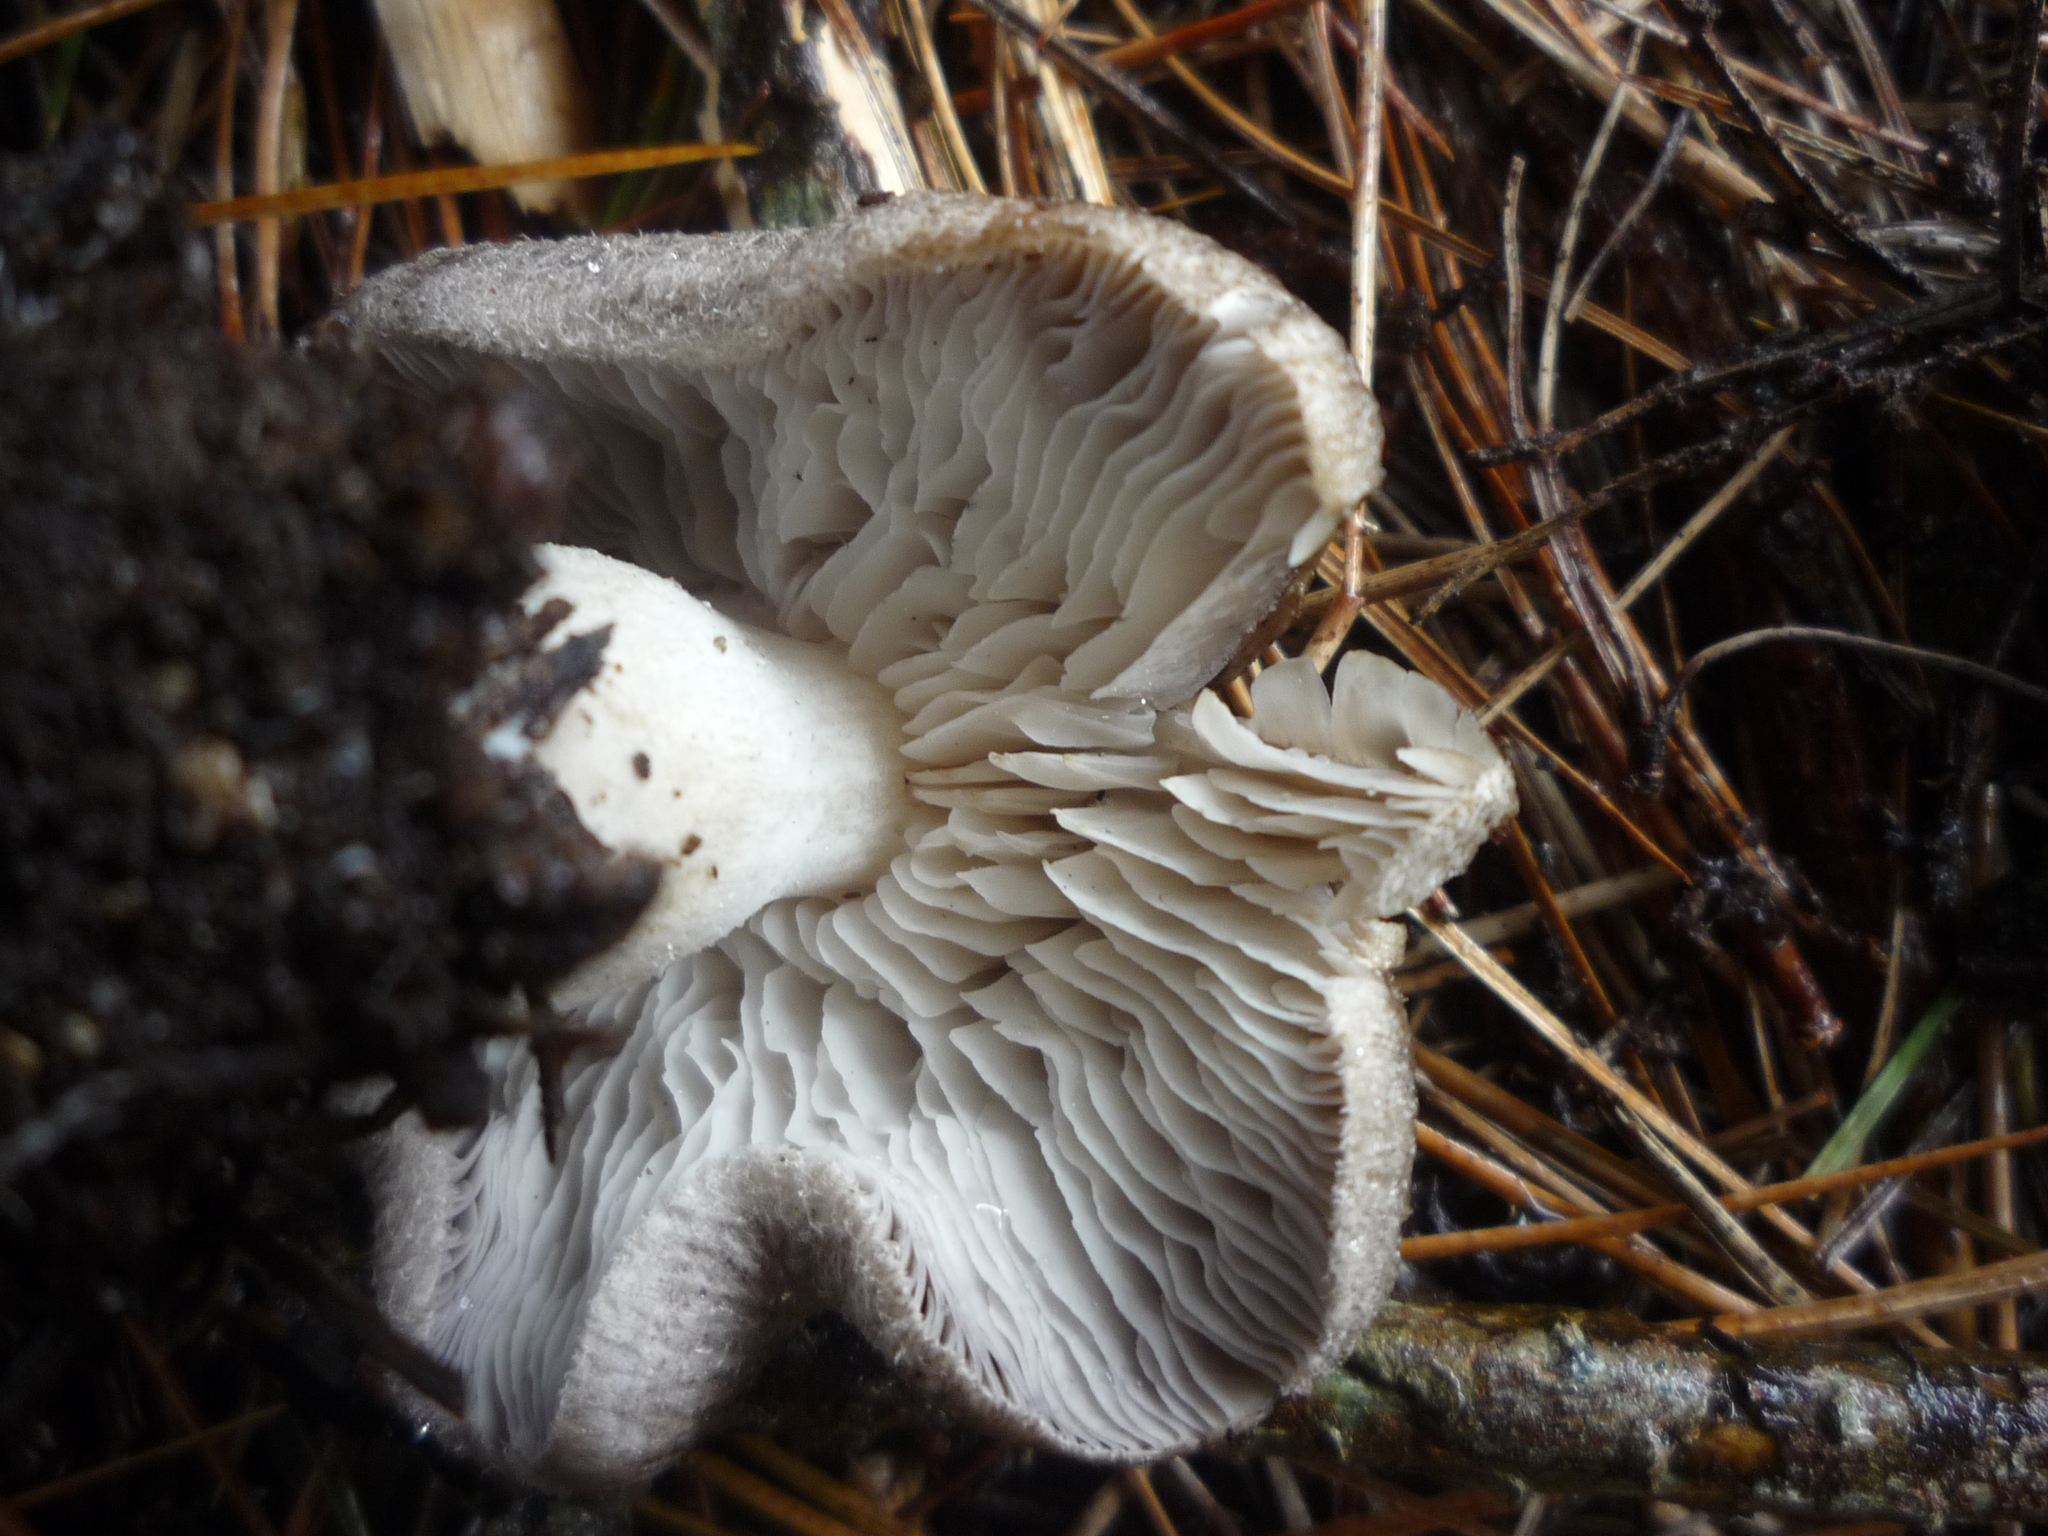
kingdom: Fungi
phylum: Basidiomycota
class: Agaricomycetes
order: Agaricales
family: Tricholomataceae
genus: Tricholoma
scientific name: Tricholoma terreum
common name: Grey knight
